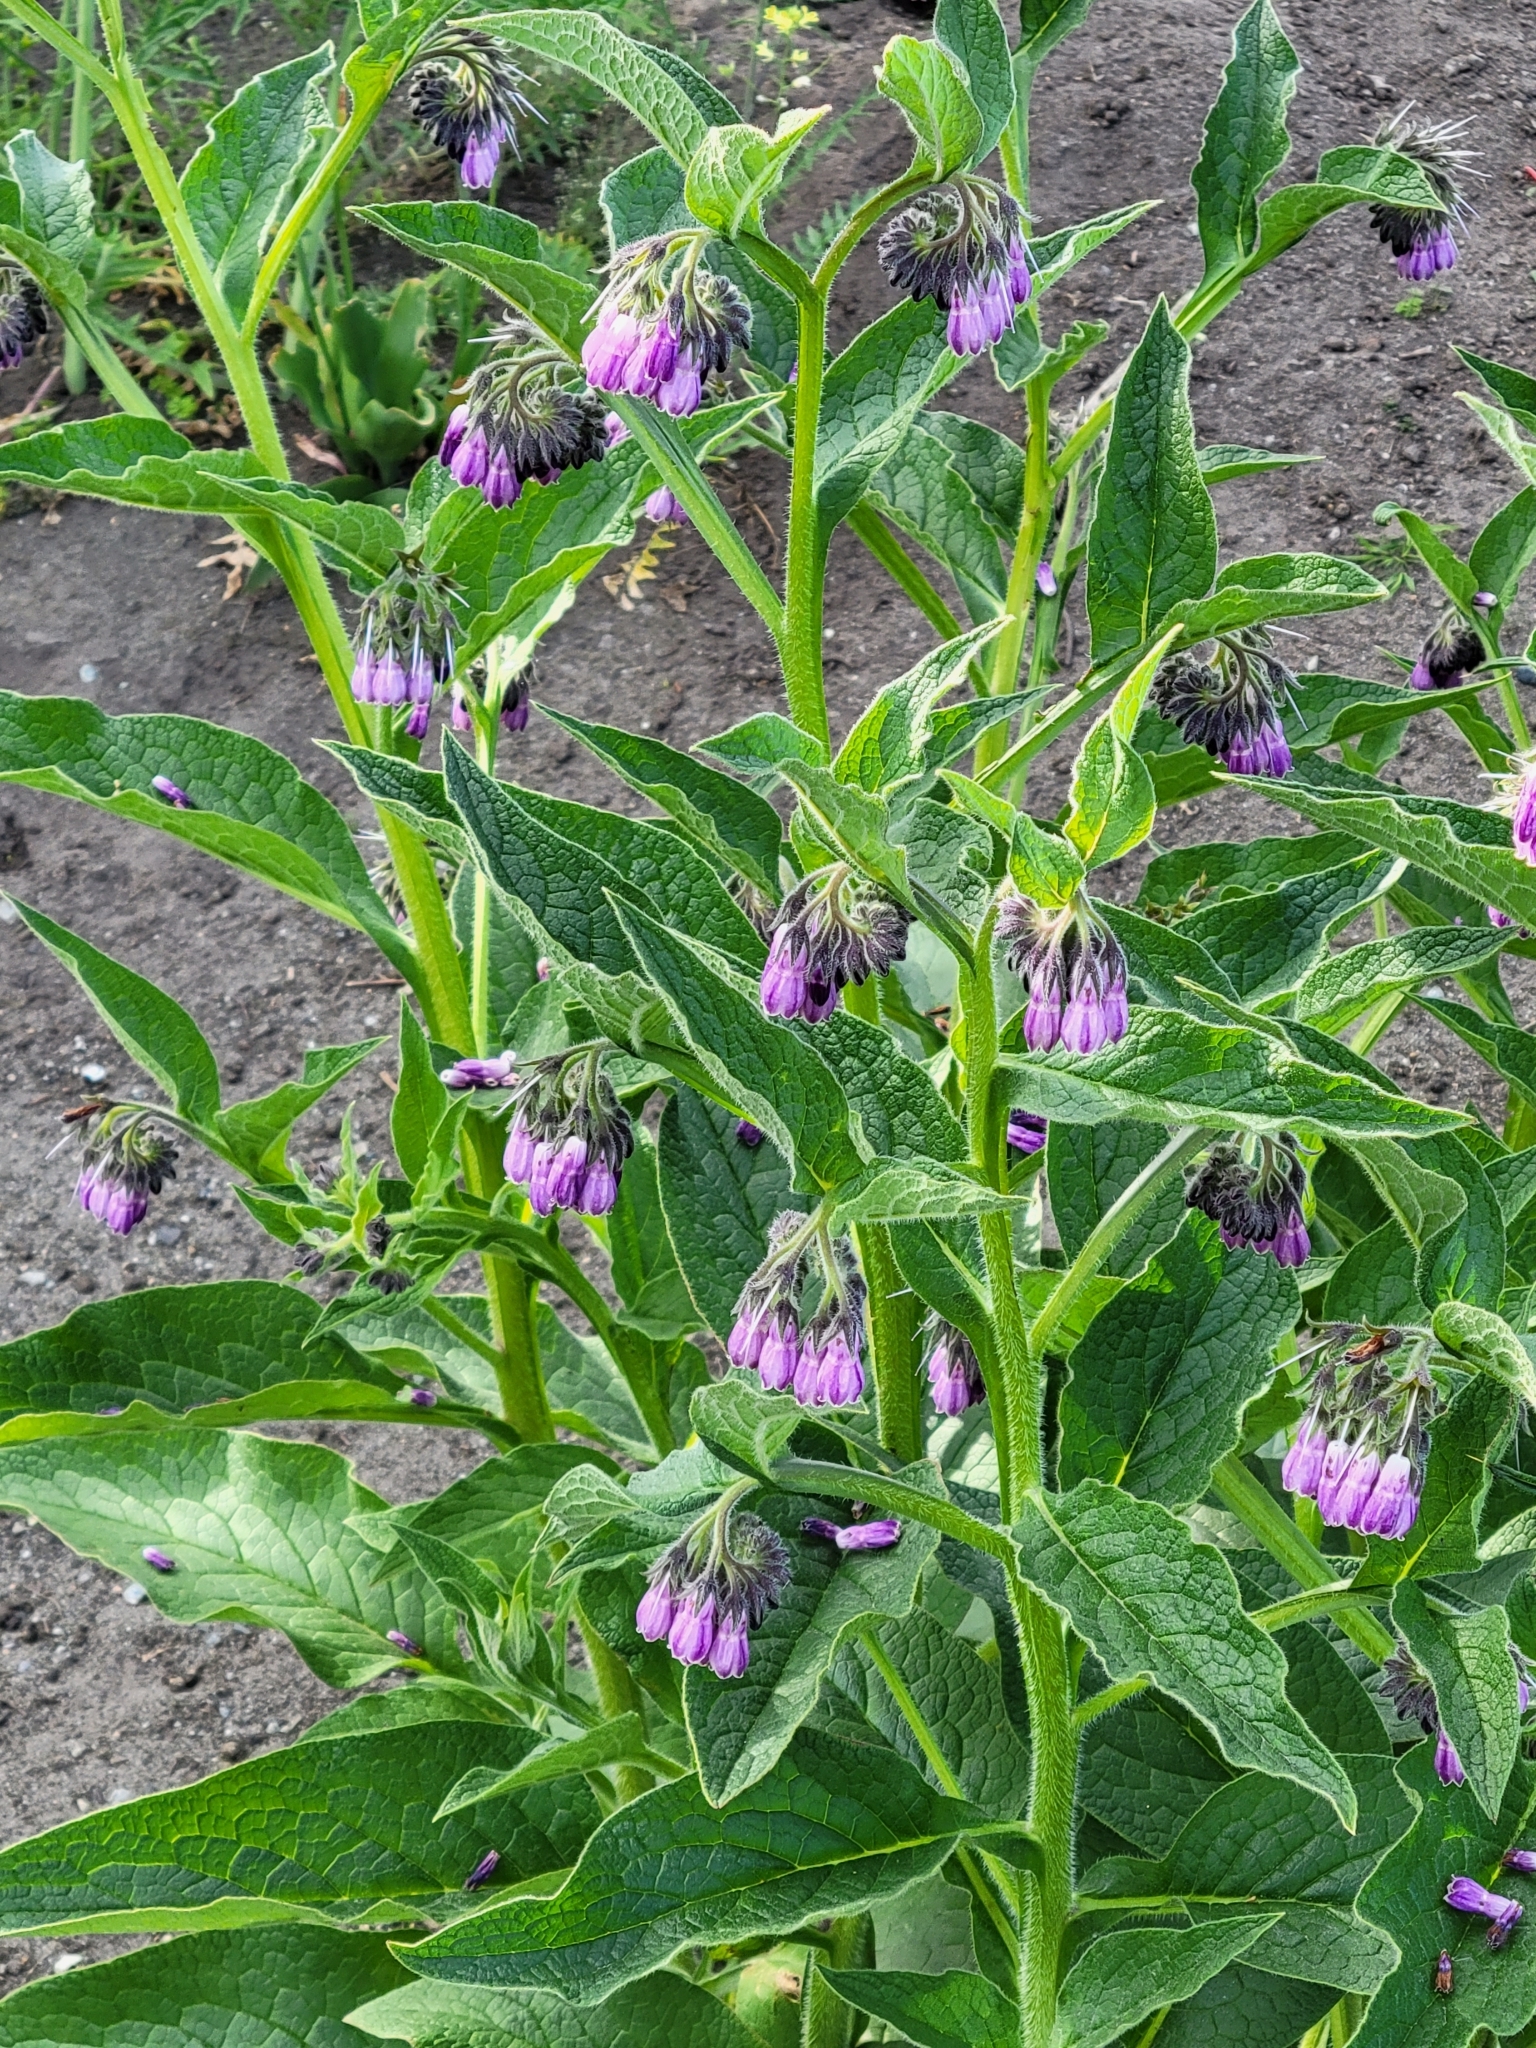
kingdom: Plantae
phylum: Tracheophyta
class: Magnoliopsida
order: Boraginales
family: Boraginaceae
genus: Symphytum
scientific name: Symphytum officinale
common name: Common comfrey
